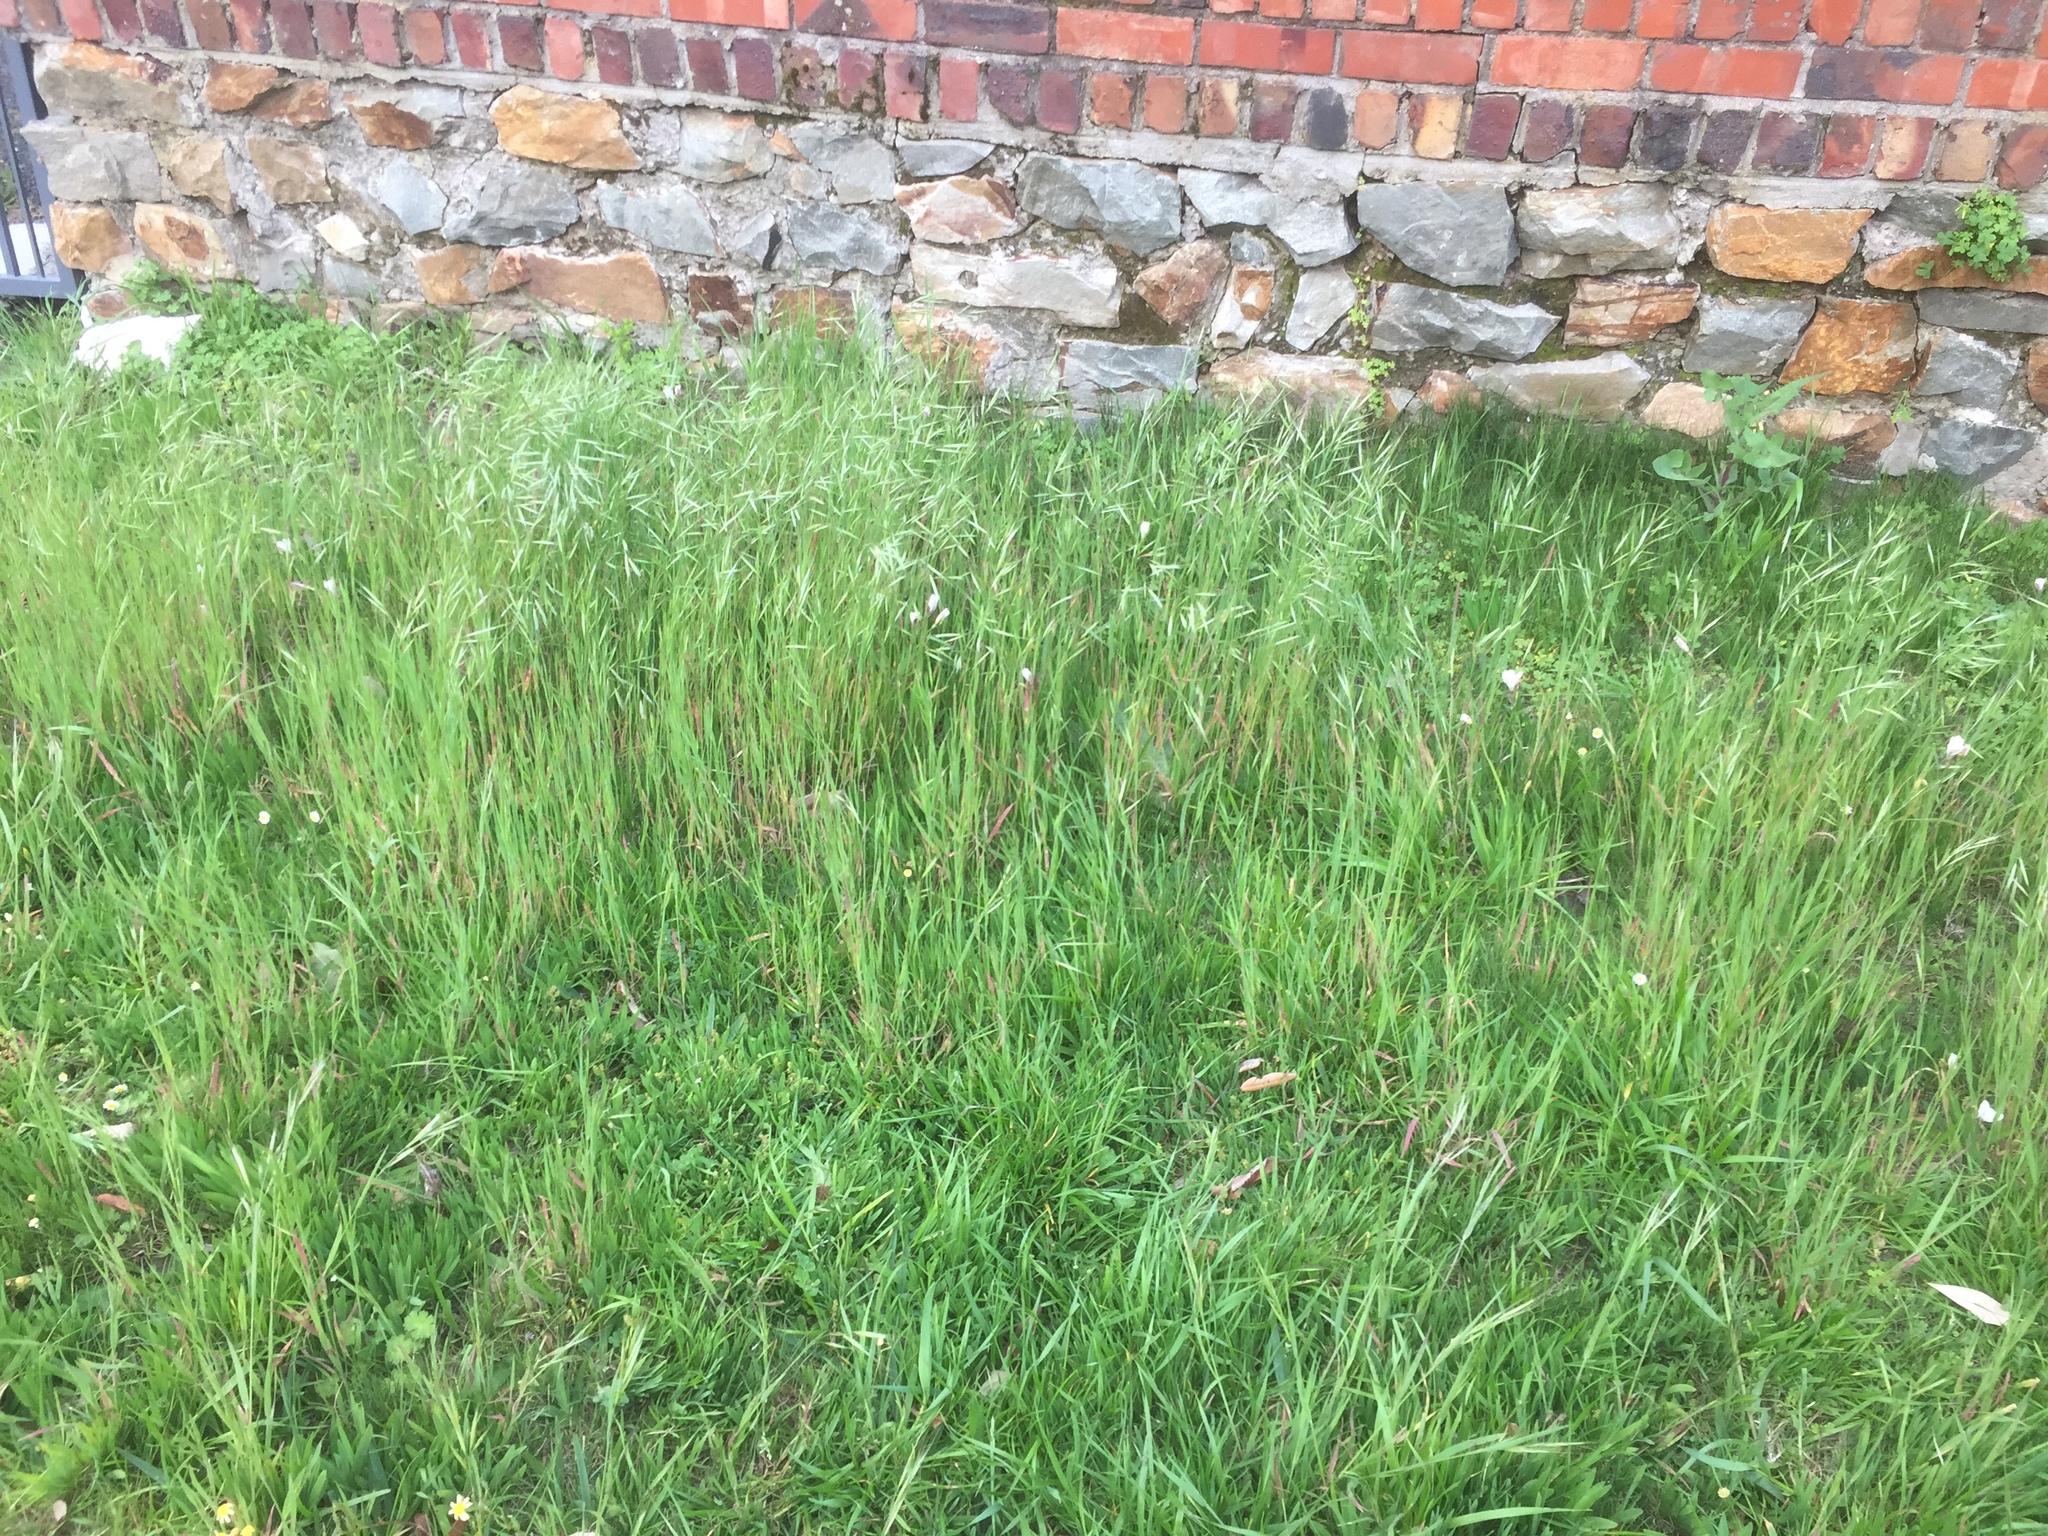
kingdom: Plantae
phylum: Tracheophyta
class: Liliopsida
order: Poales
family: Poaceae
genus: Bromus
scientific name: Bromus diandrus
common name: Ripgut brome
